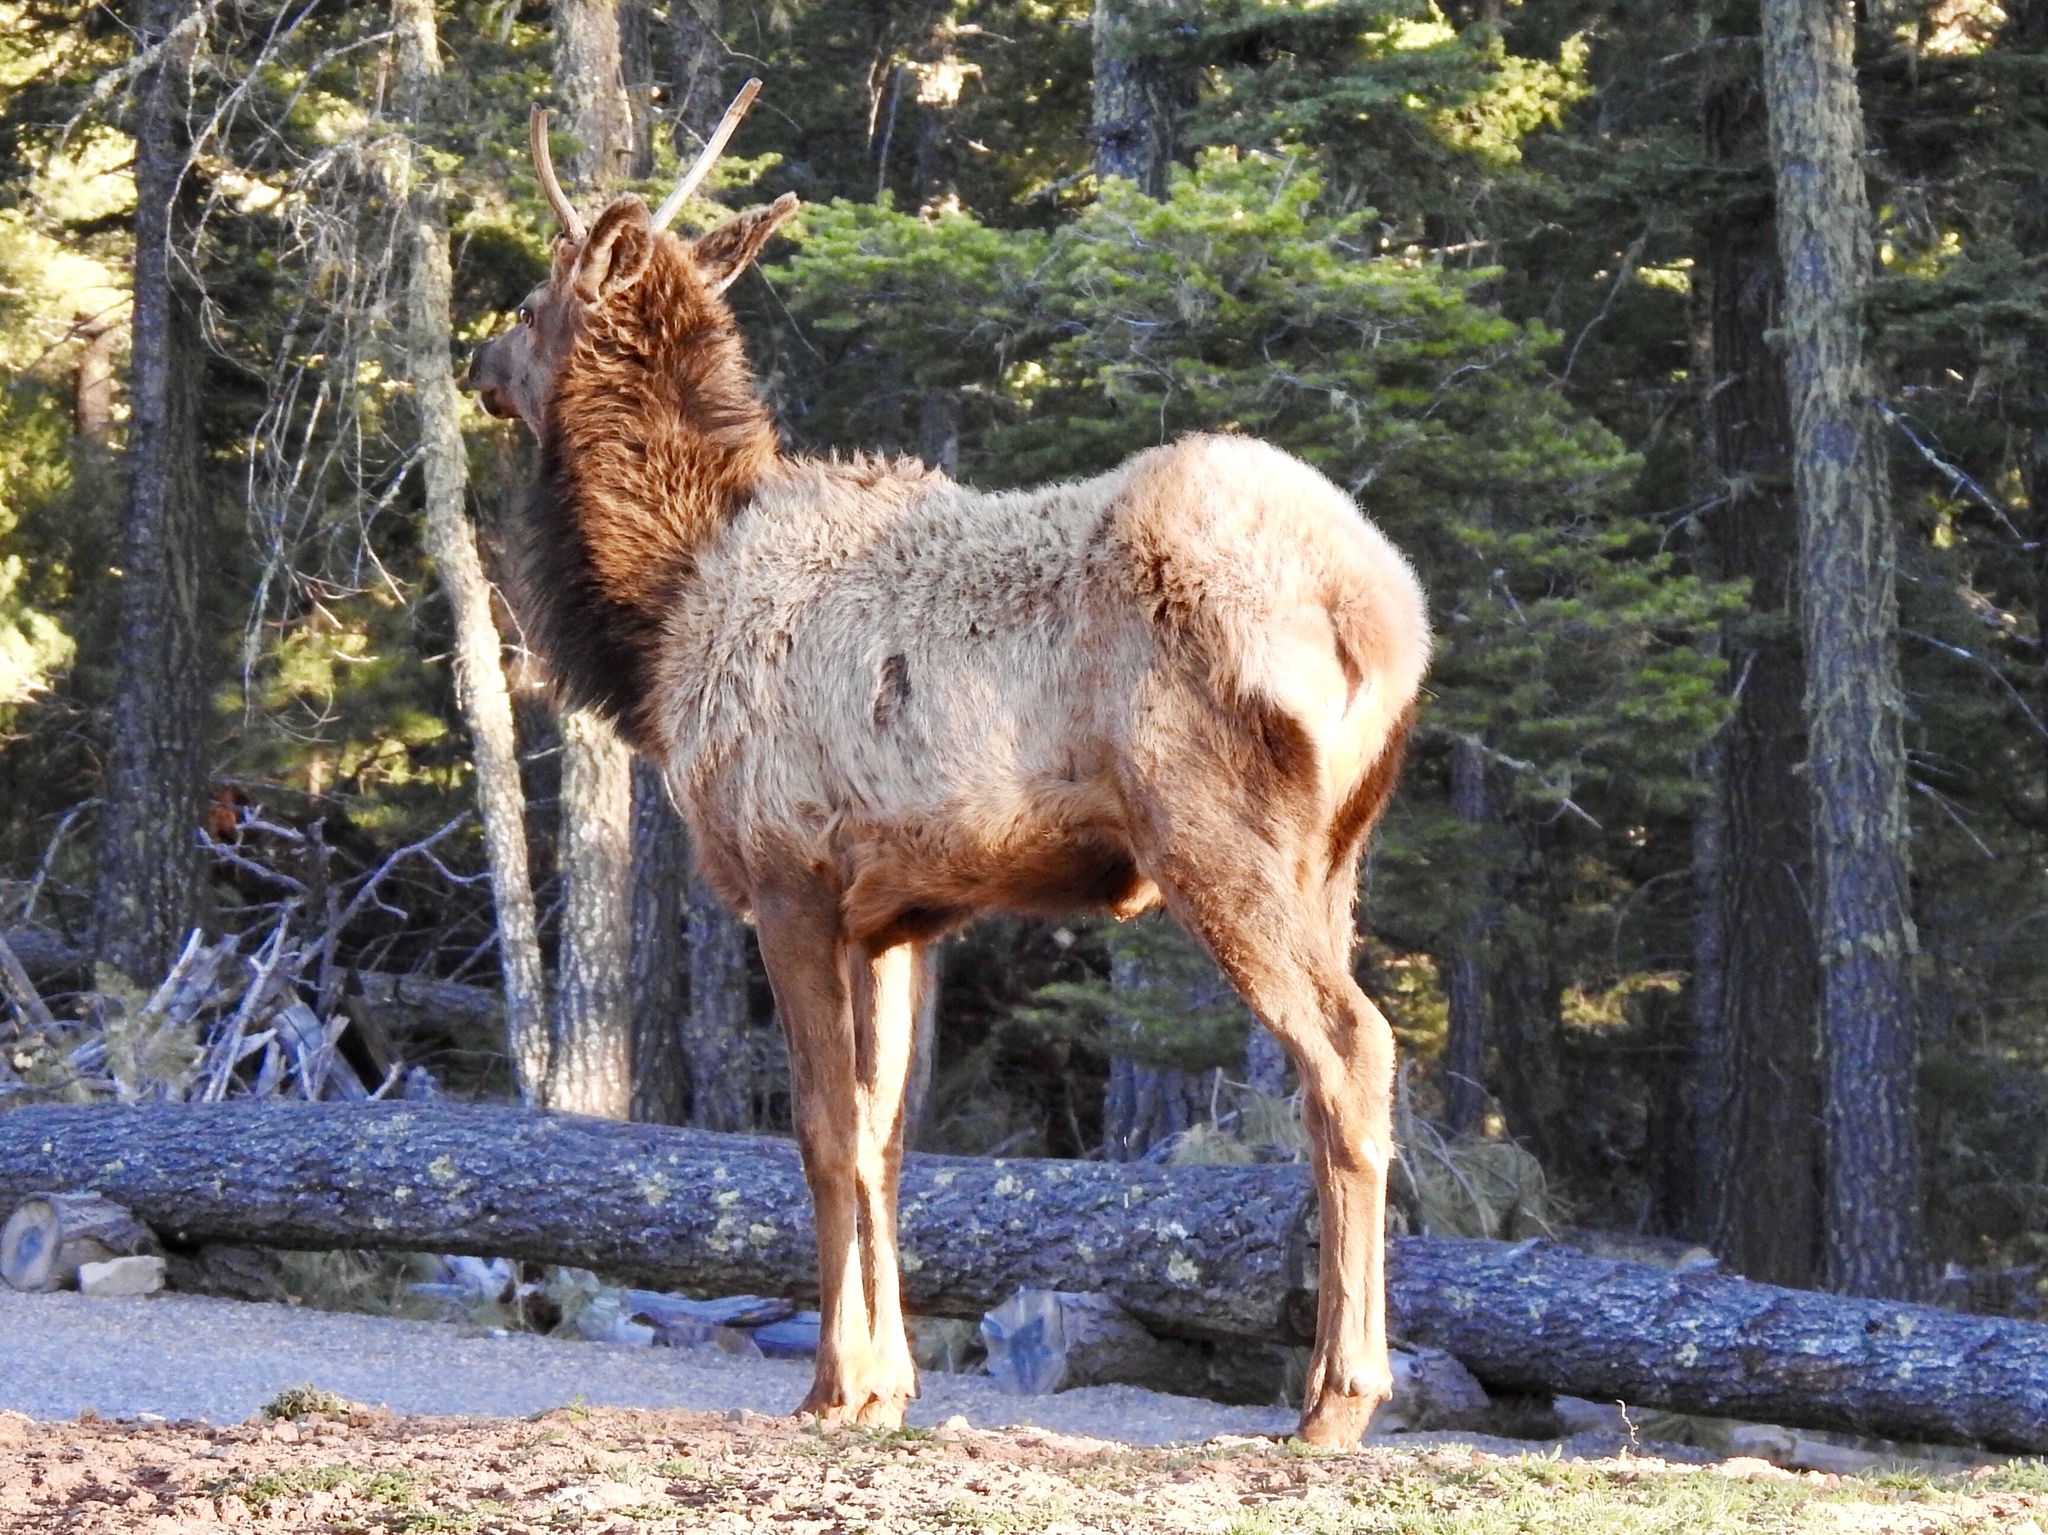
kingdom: Animalia
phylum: Chordata
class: Mammalia
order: Artiodactyla
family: Cervidae
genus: Cervus
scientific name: Cervus elaphus
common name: Red deer
